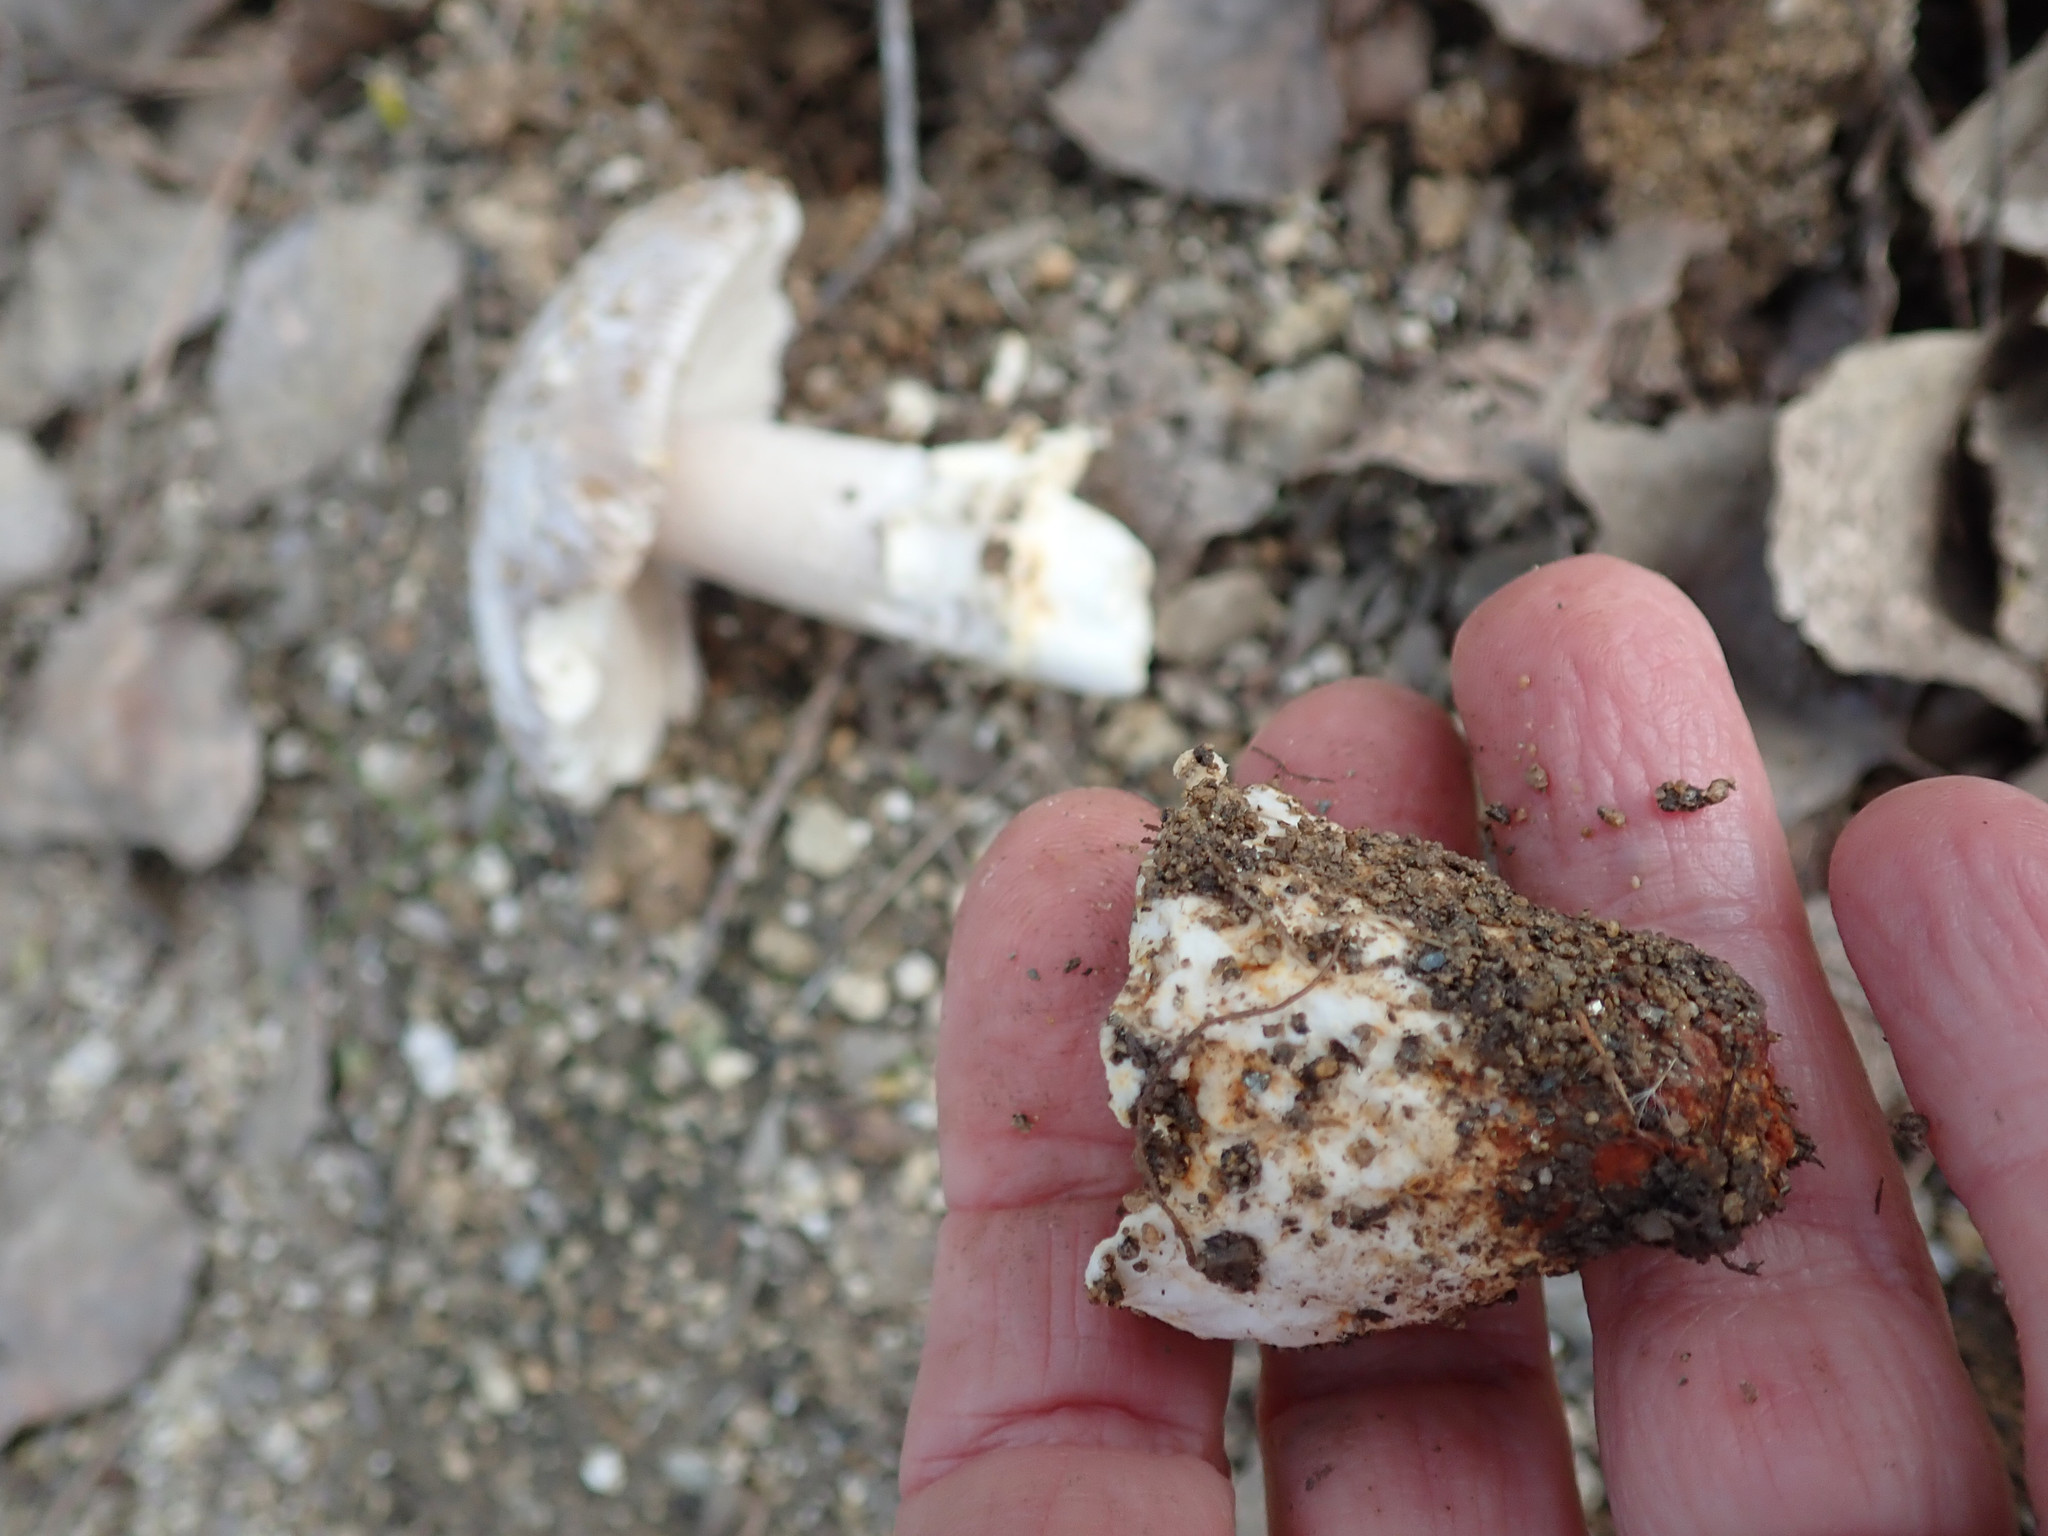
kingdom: Fungi
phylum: Basidiomycota
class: Agaricomycetes
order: Agaricales
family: Amanitaceae
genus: Amanita
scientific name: Amanita protecta
